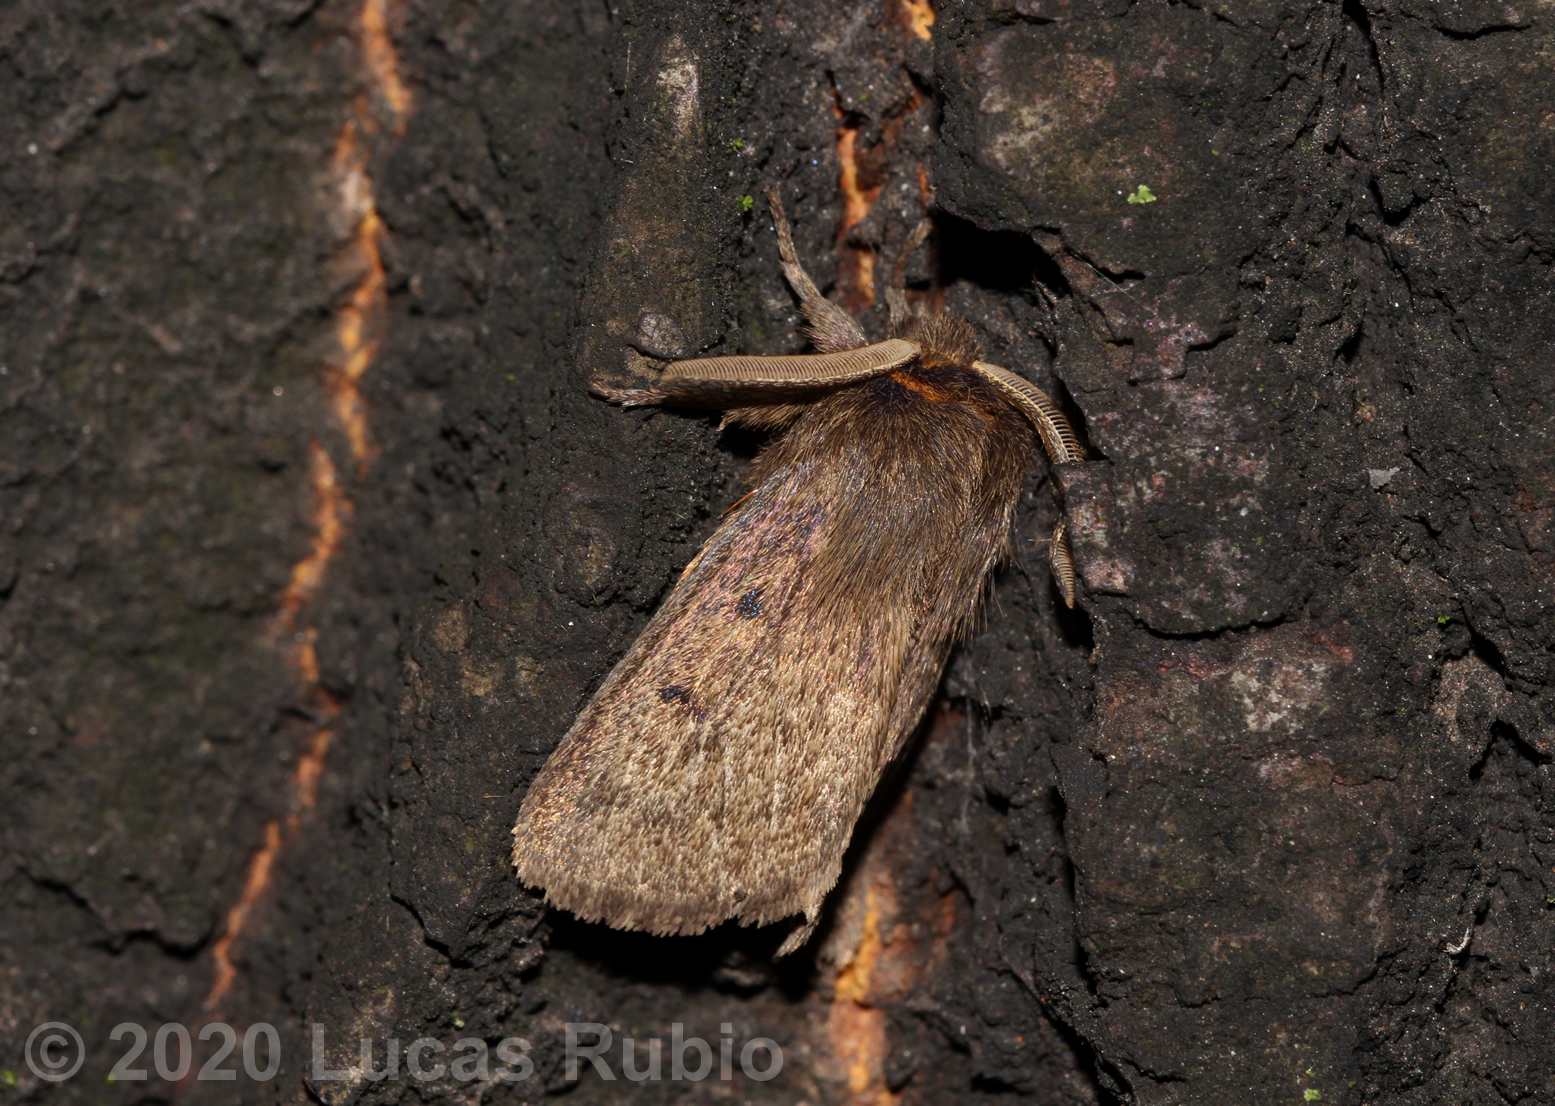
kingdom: Animalia
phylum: Arthropoda
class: Insecta
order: Lepidoptera
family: Erebidae
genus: Paracles
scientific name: Paracles fusca
